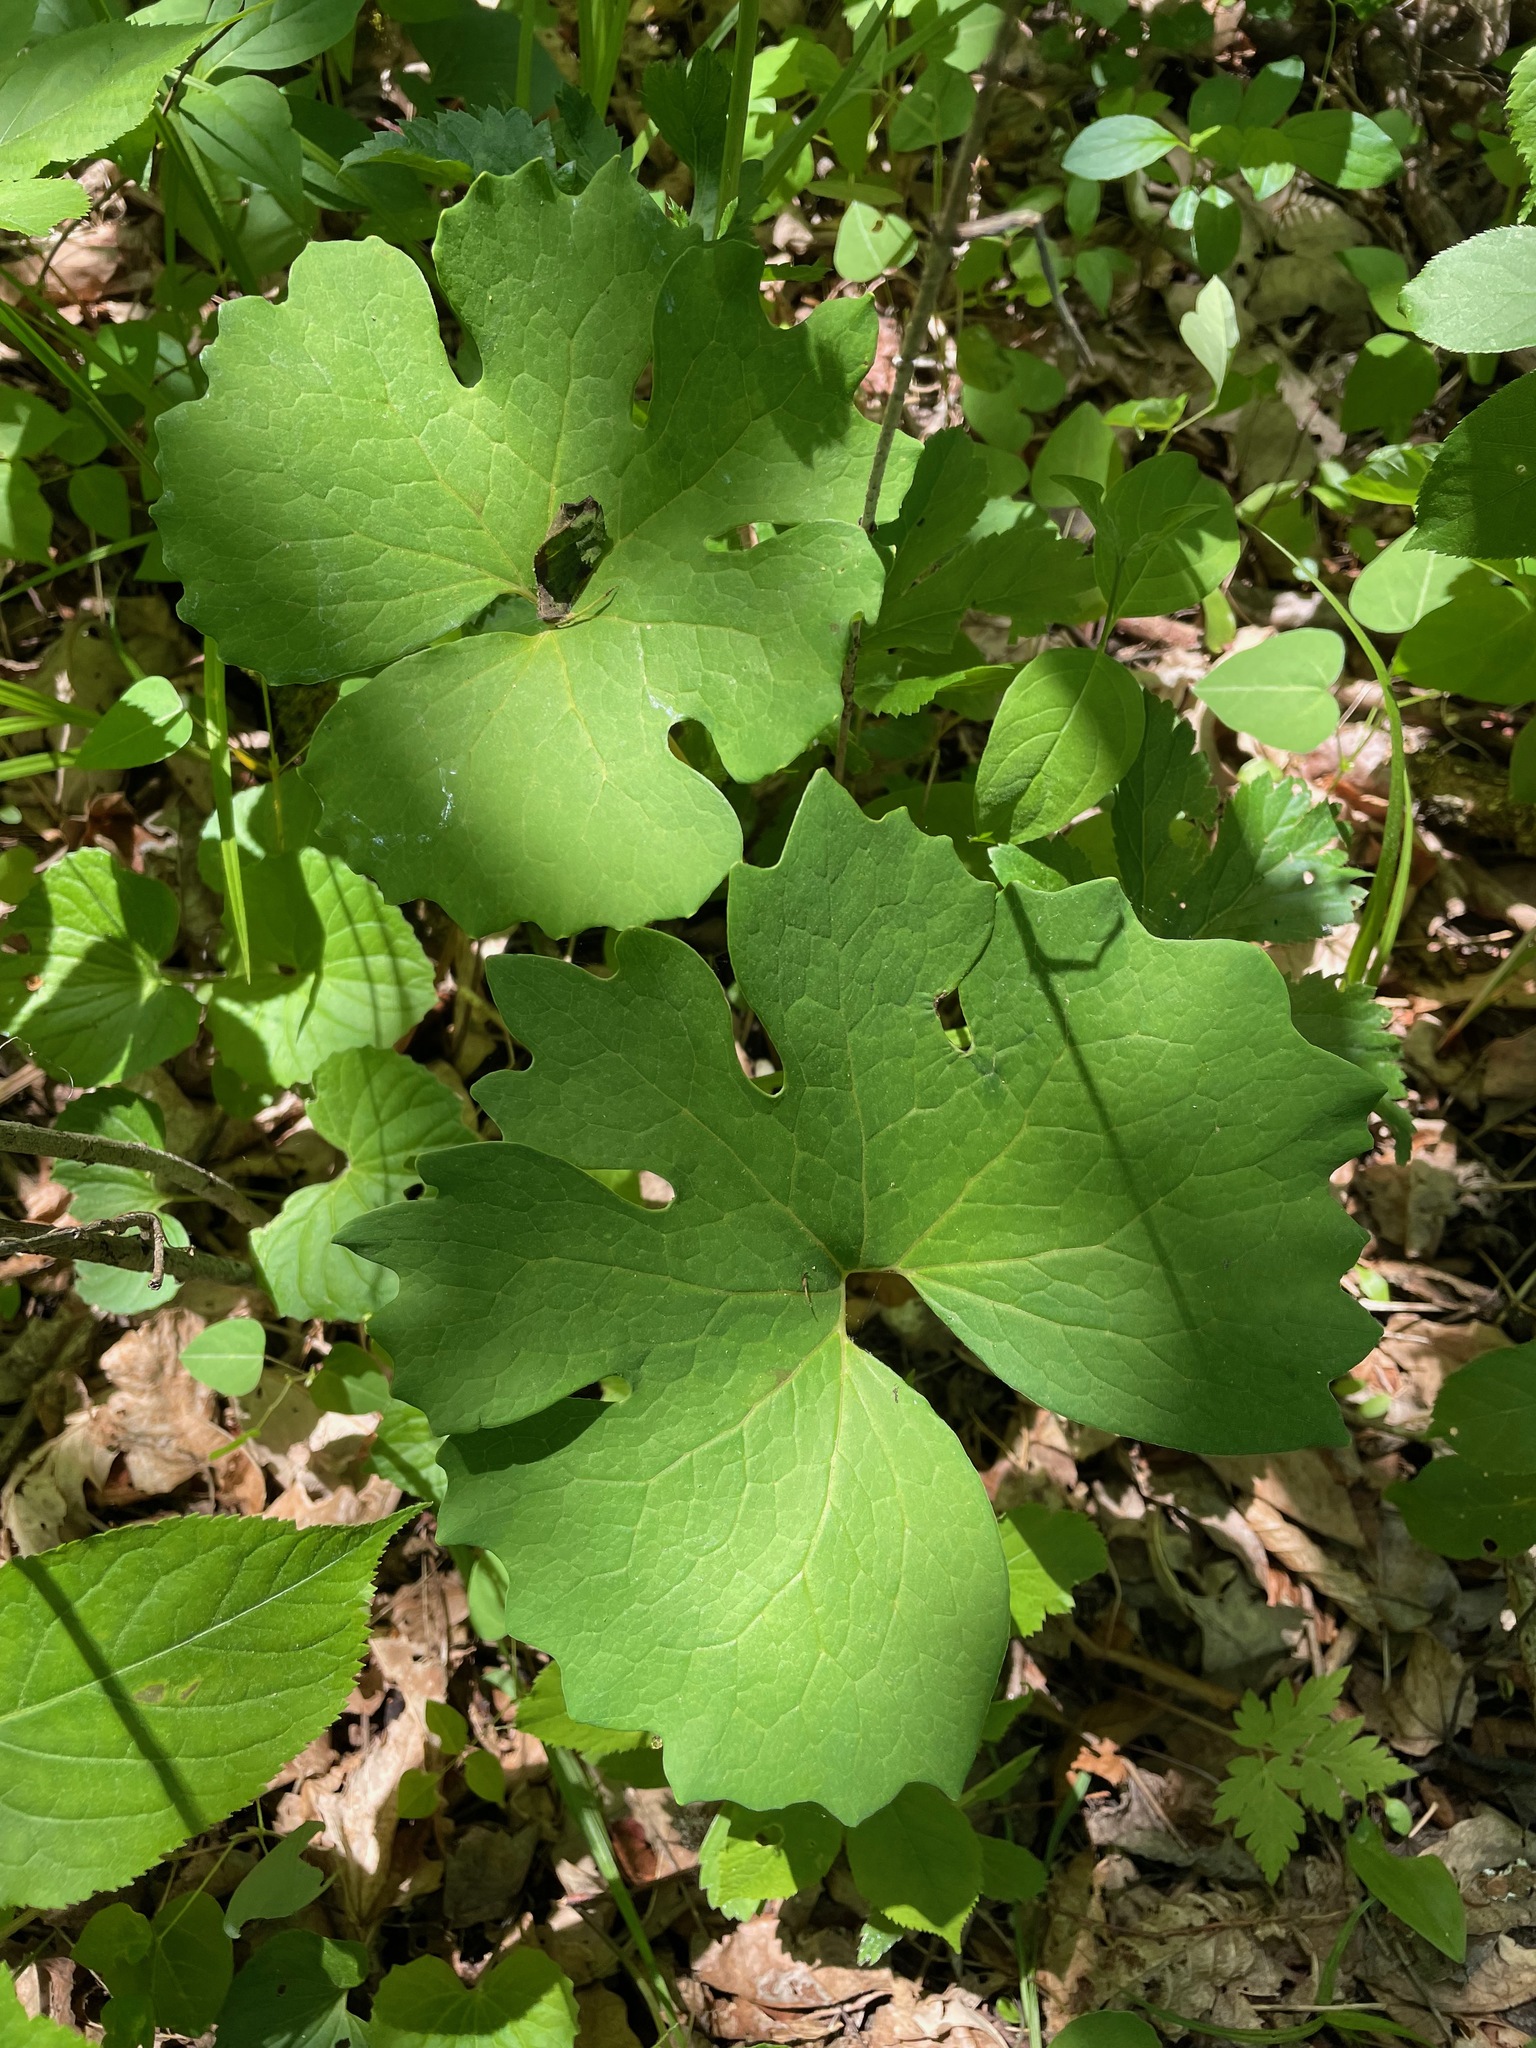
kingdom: Plantae
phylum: Tracheophyta
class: Magnoliopsida
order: Ranunculales
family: Papaveraceae
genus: Sanguinaria
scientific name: Sanguinaria canadensis
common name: Bloodroot
